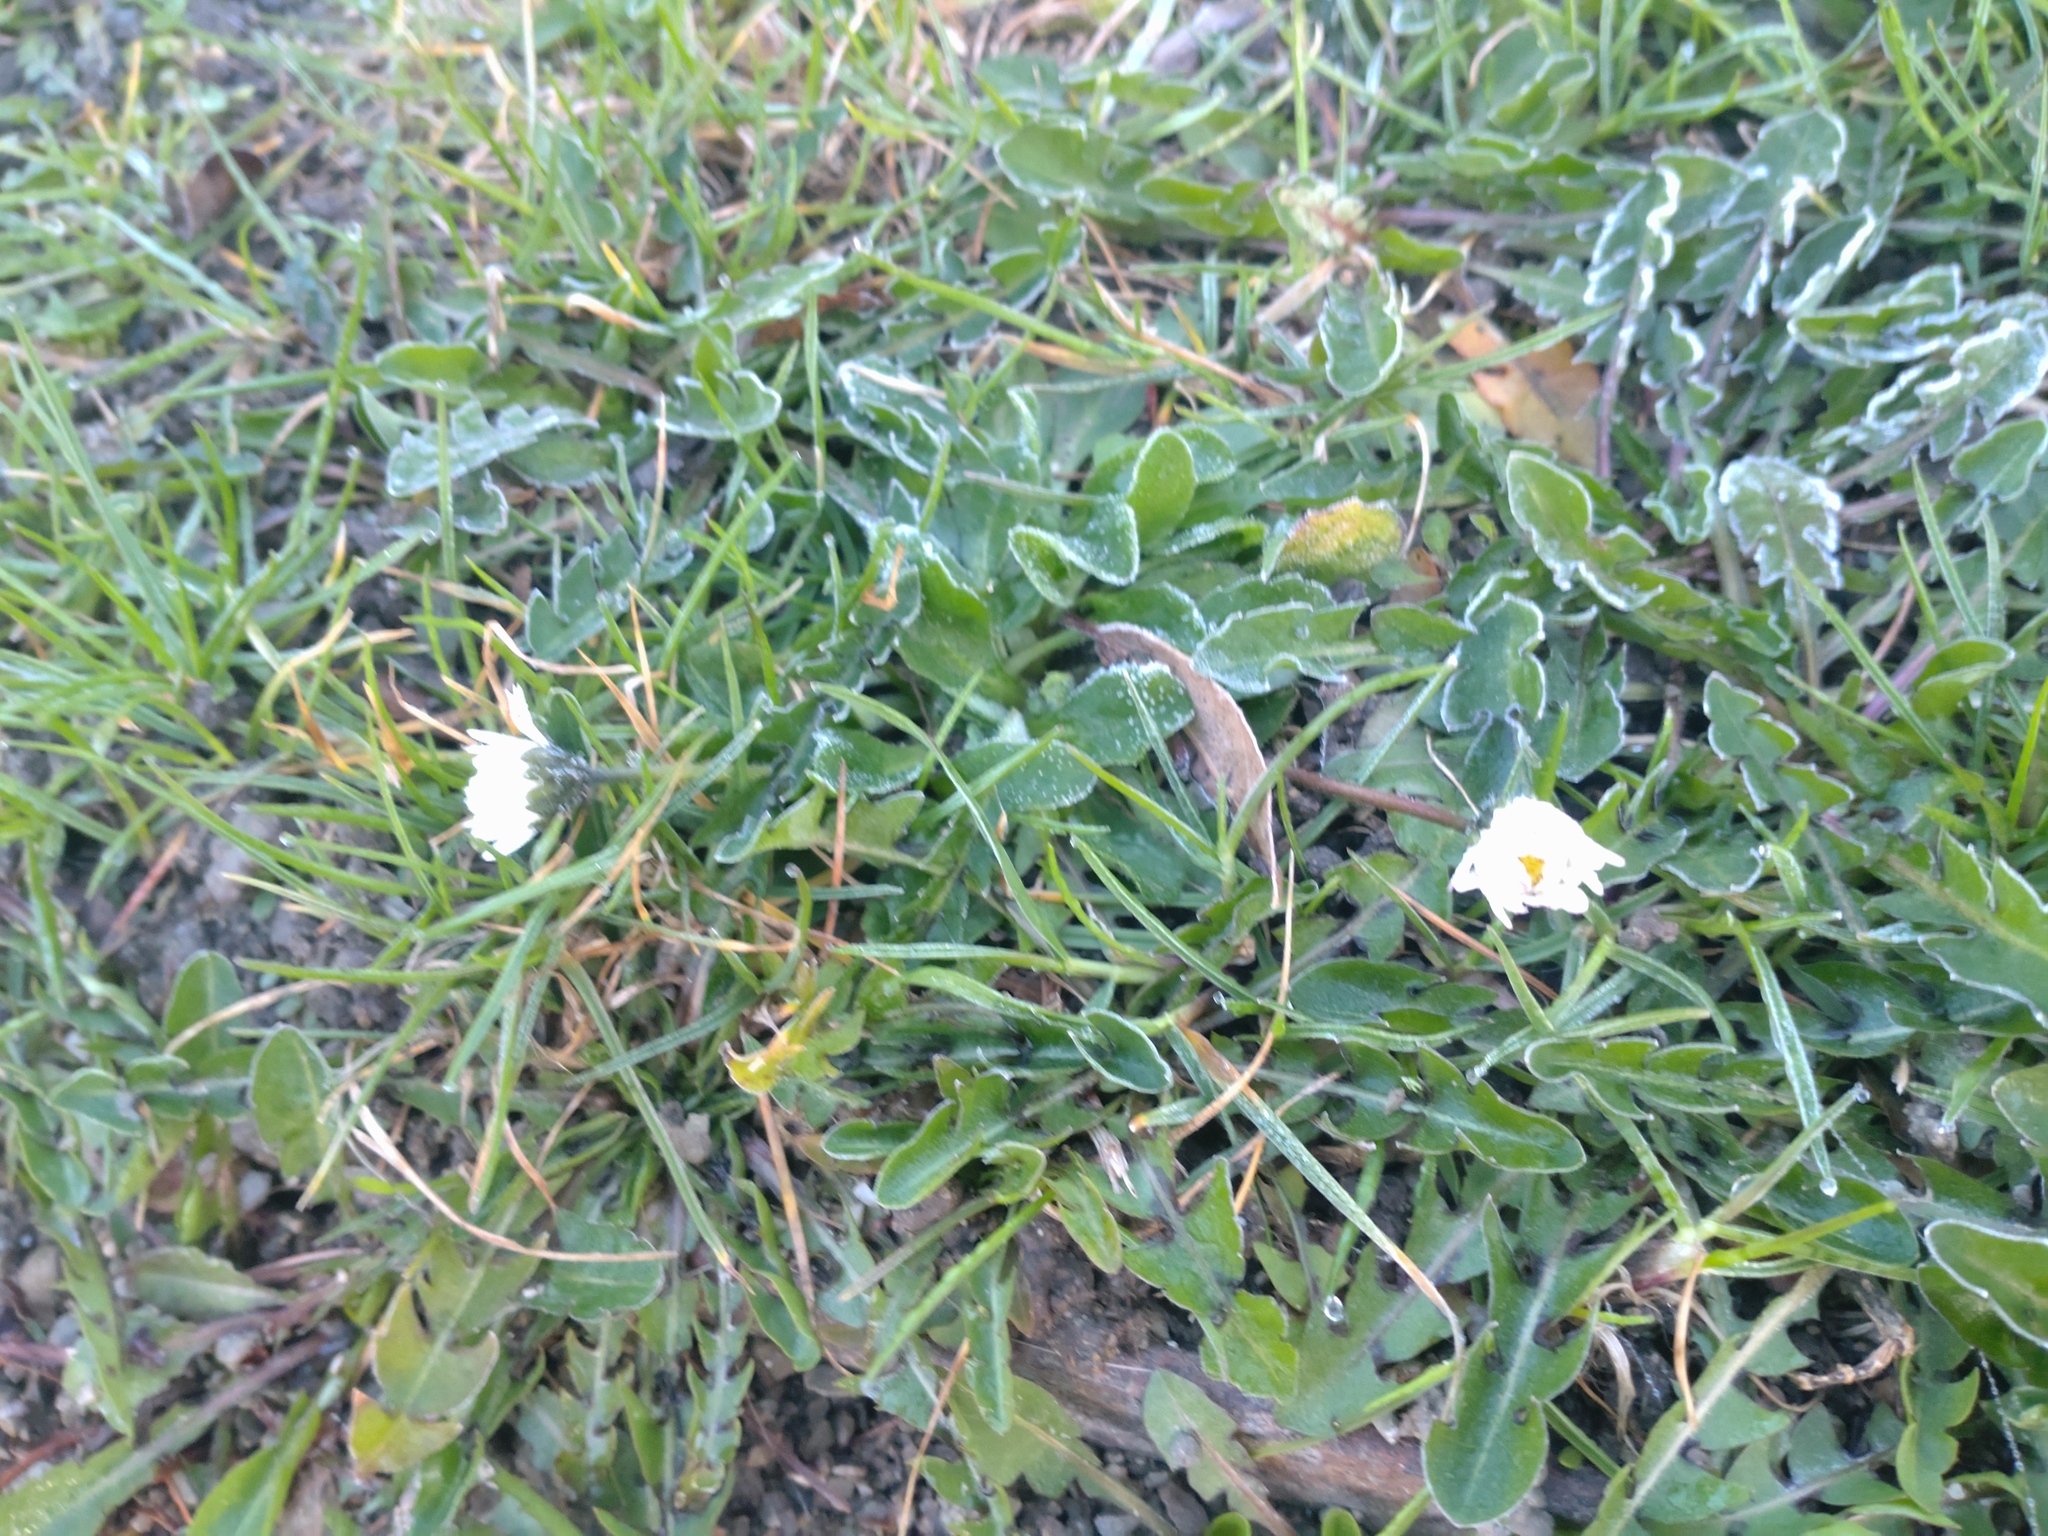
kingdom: Plantae
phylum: Tracheophyta
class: Magnoliopsida
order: Asterales
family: Asteraceae
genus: Bellis
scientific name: Bellis perennis
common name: Lawndaisy
